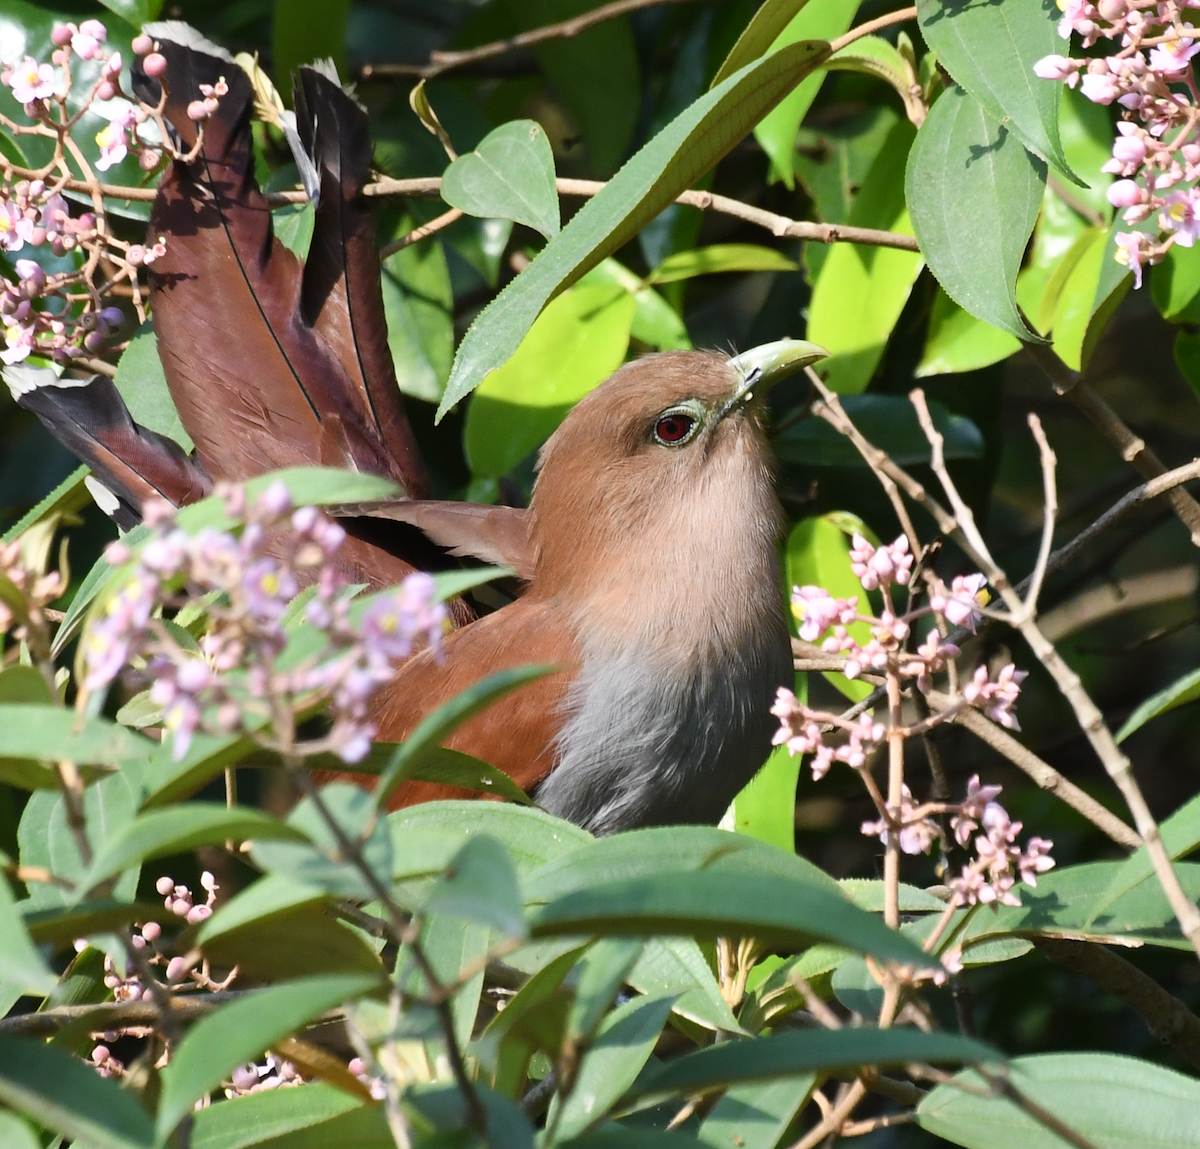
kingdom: Animalia
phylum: Chordata
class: Aves
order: Cuculiformes
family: Cuculidae
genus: Piaya
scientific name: Piaya cayana
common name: Squirrel cuckoo
